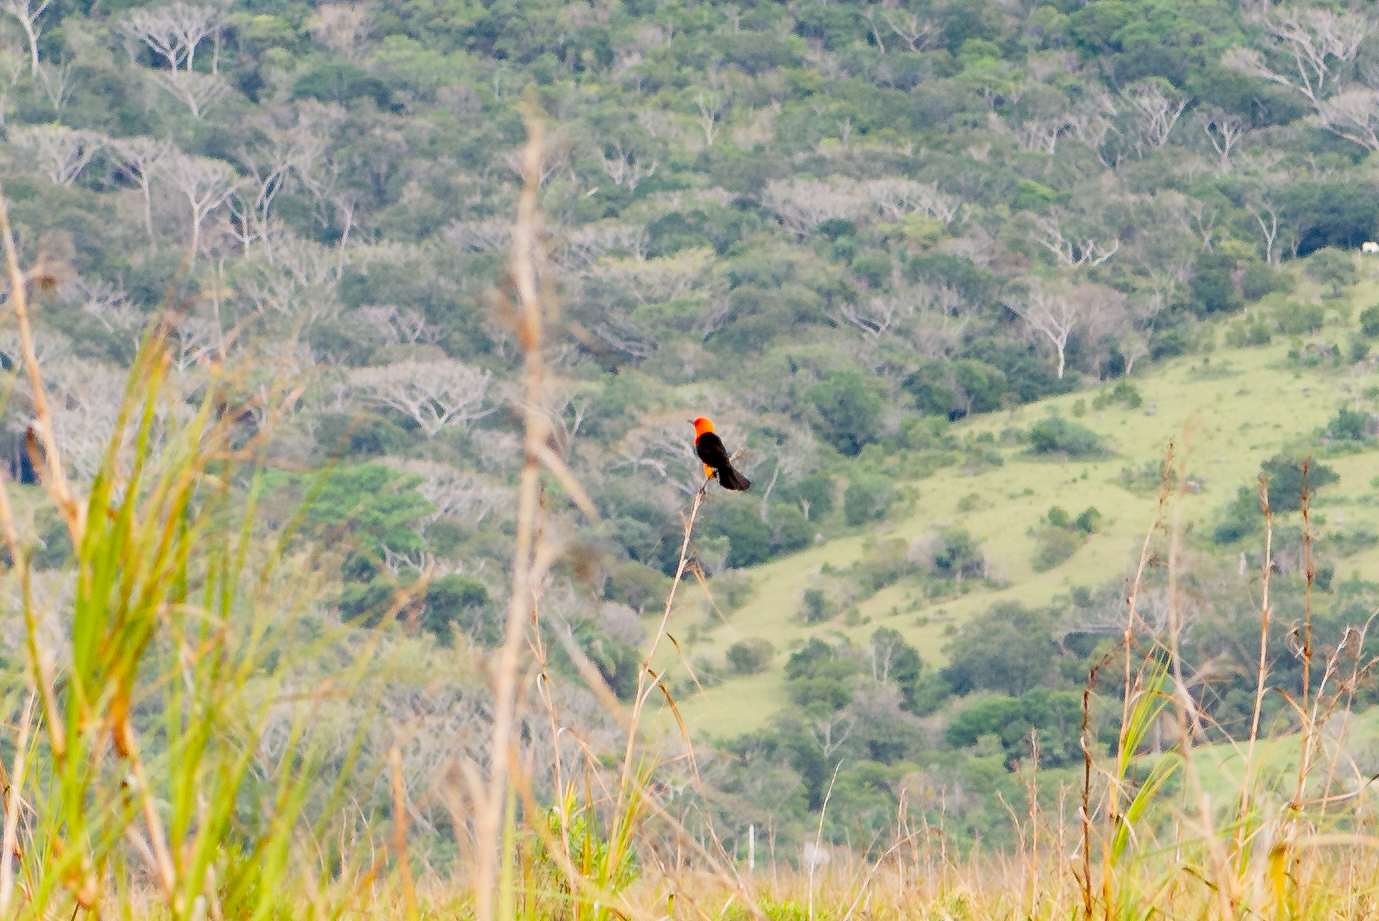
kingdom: Animalia
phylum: Chordata
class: Aves
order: Passeriformes
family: Icteridae
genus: Amblyramphus
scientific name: Amblyramphus holosericeus
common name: Scarlet-headed blackbird
